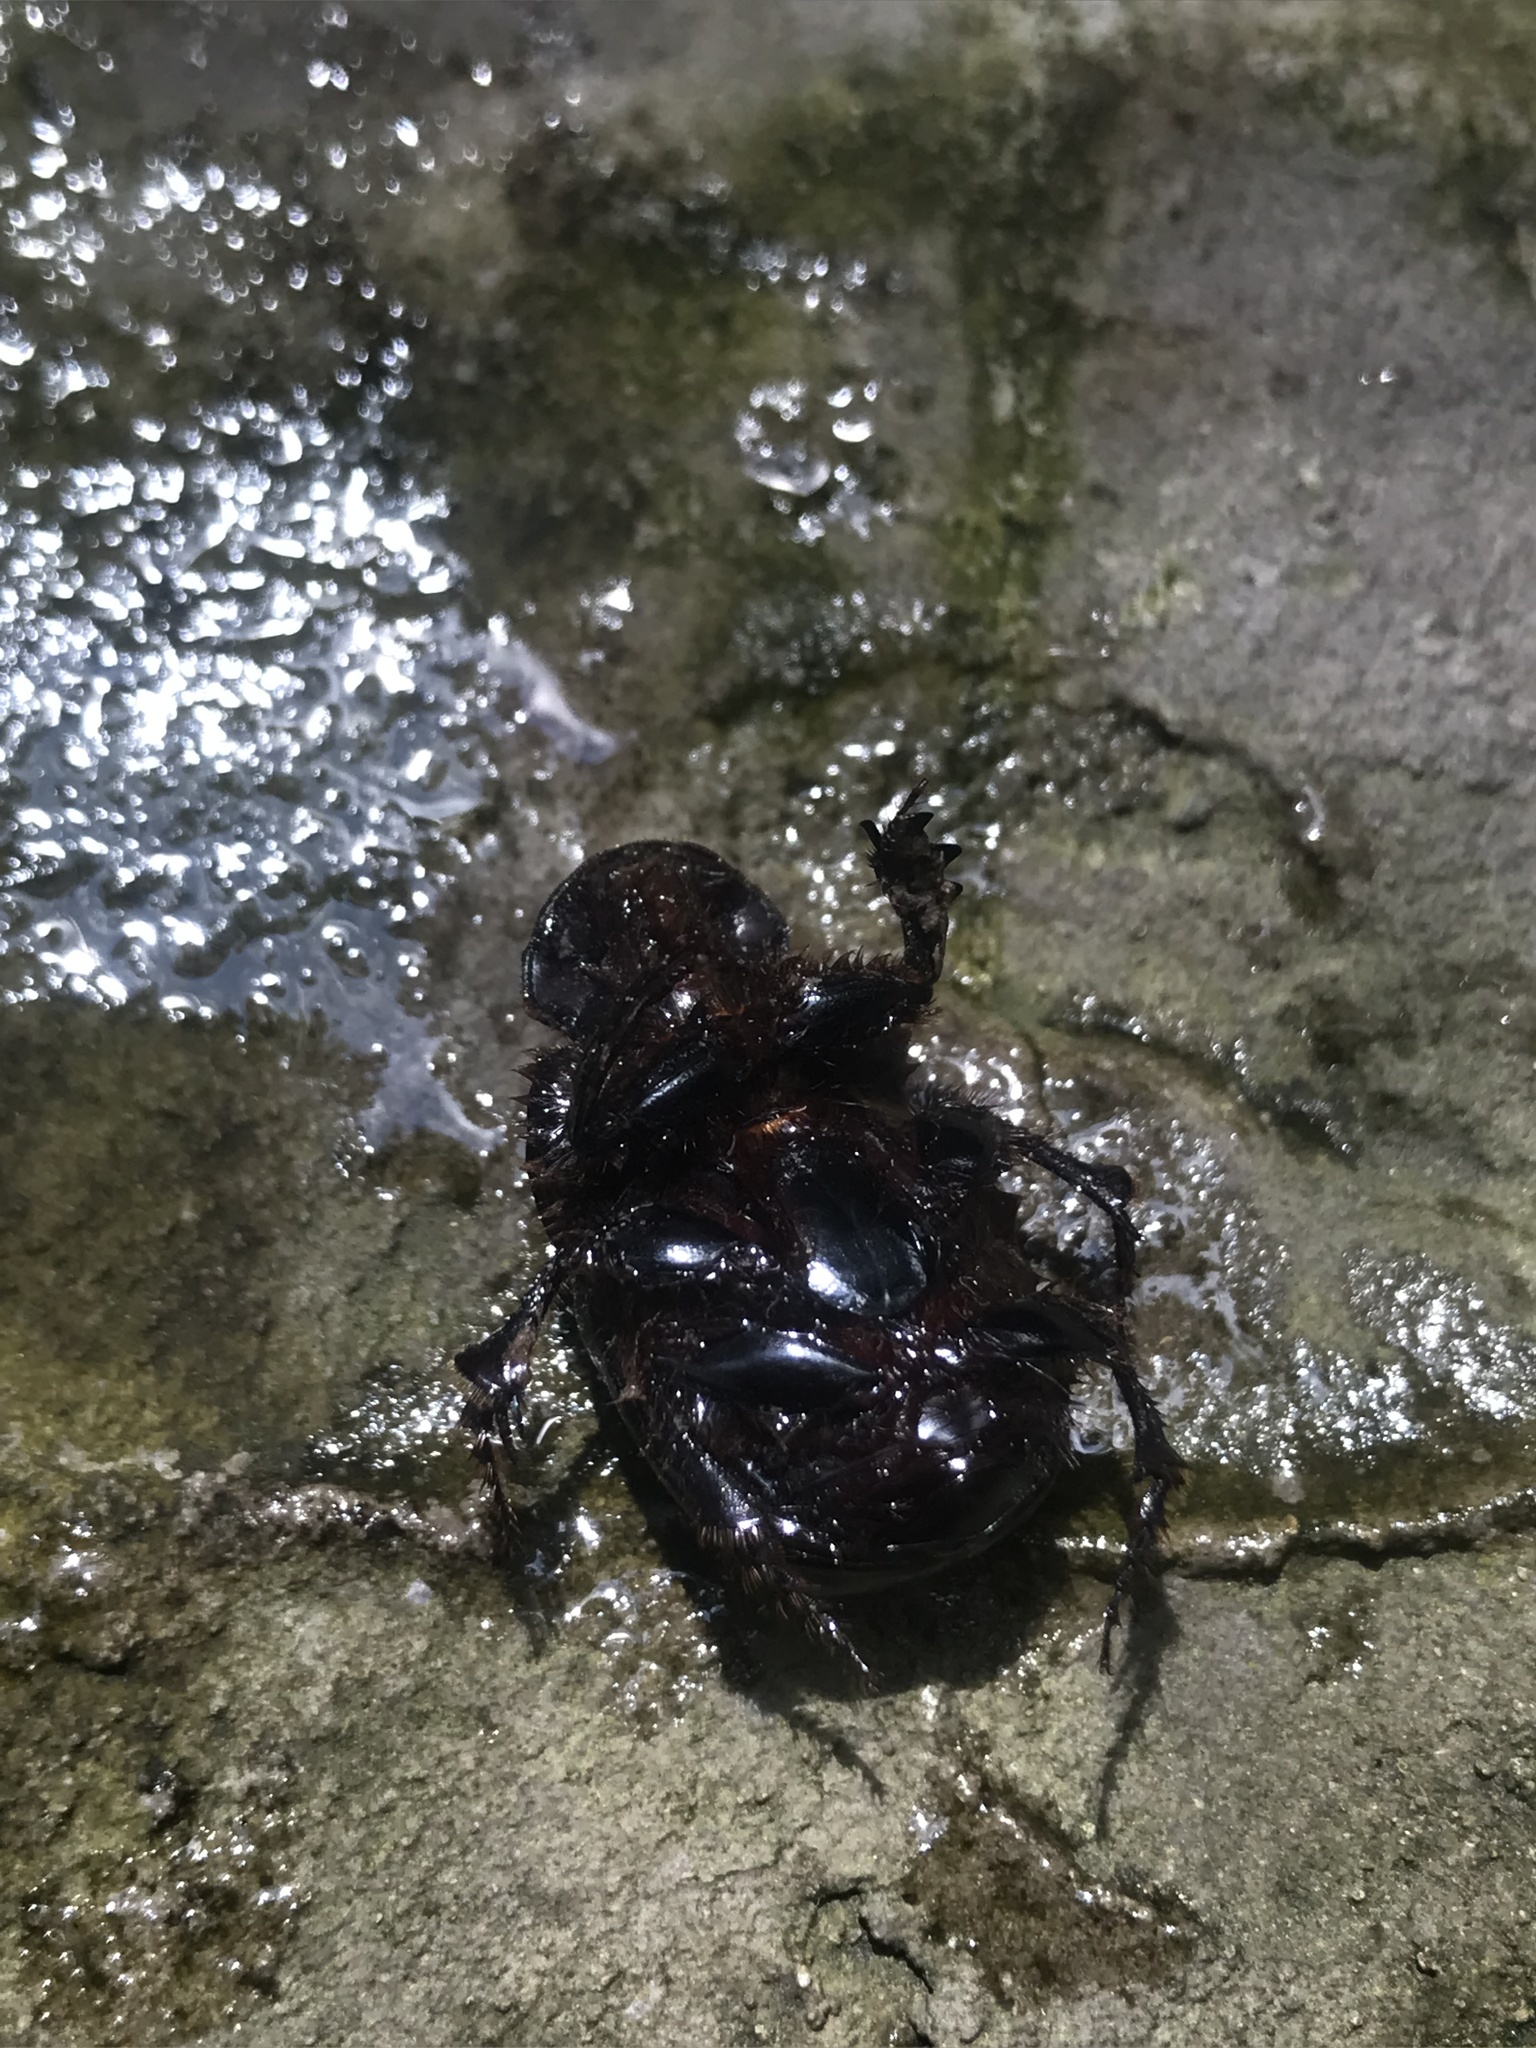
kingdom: Animalia
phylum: Arthropoda
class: Insecta
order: Coleoptera
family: Scarabaeidae
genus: Homocopris
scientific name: Homocopris achamas
